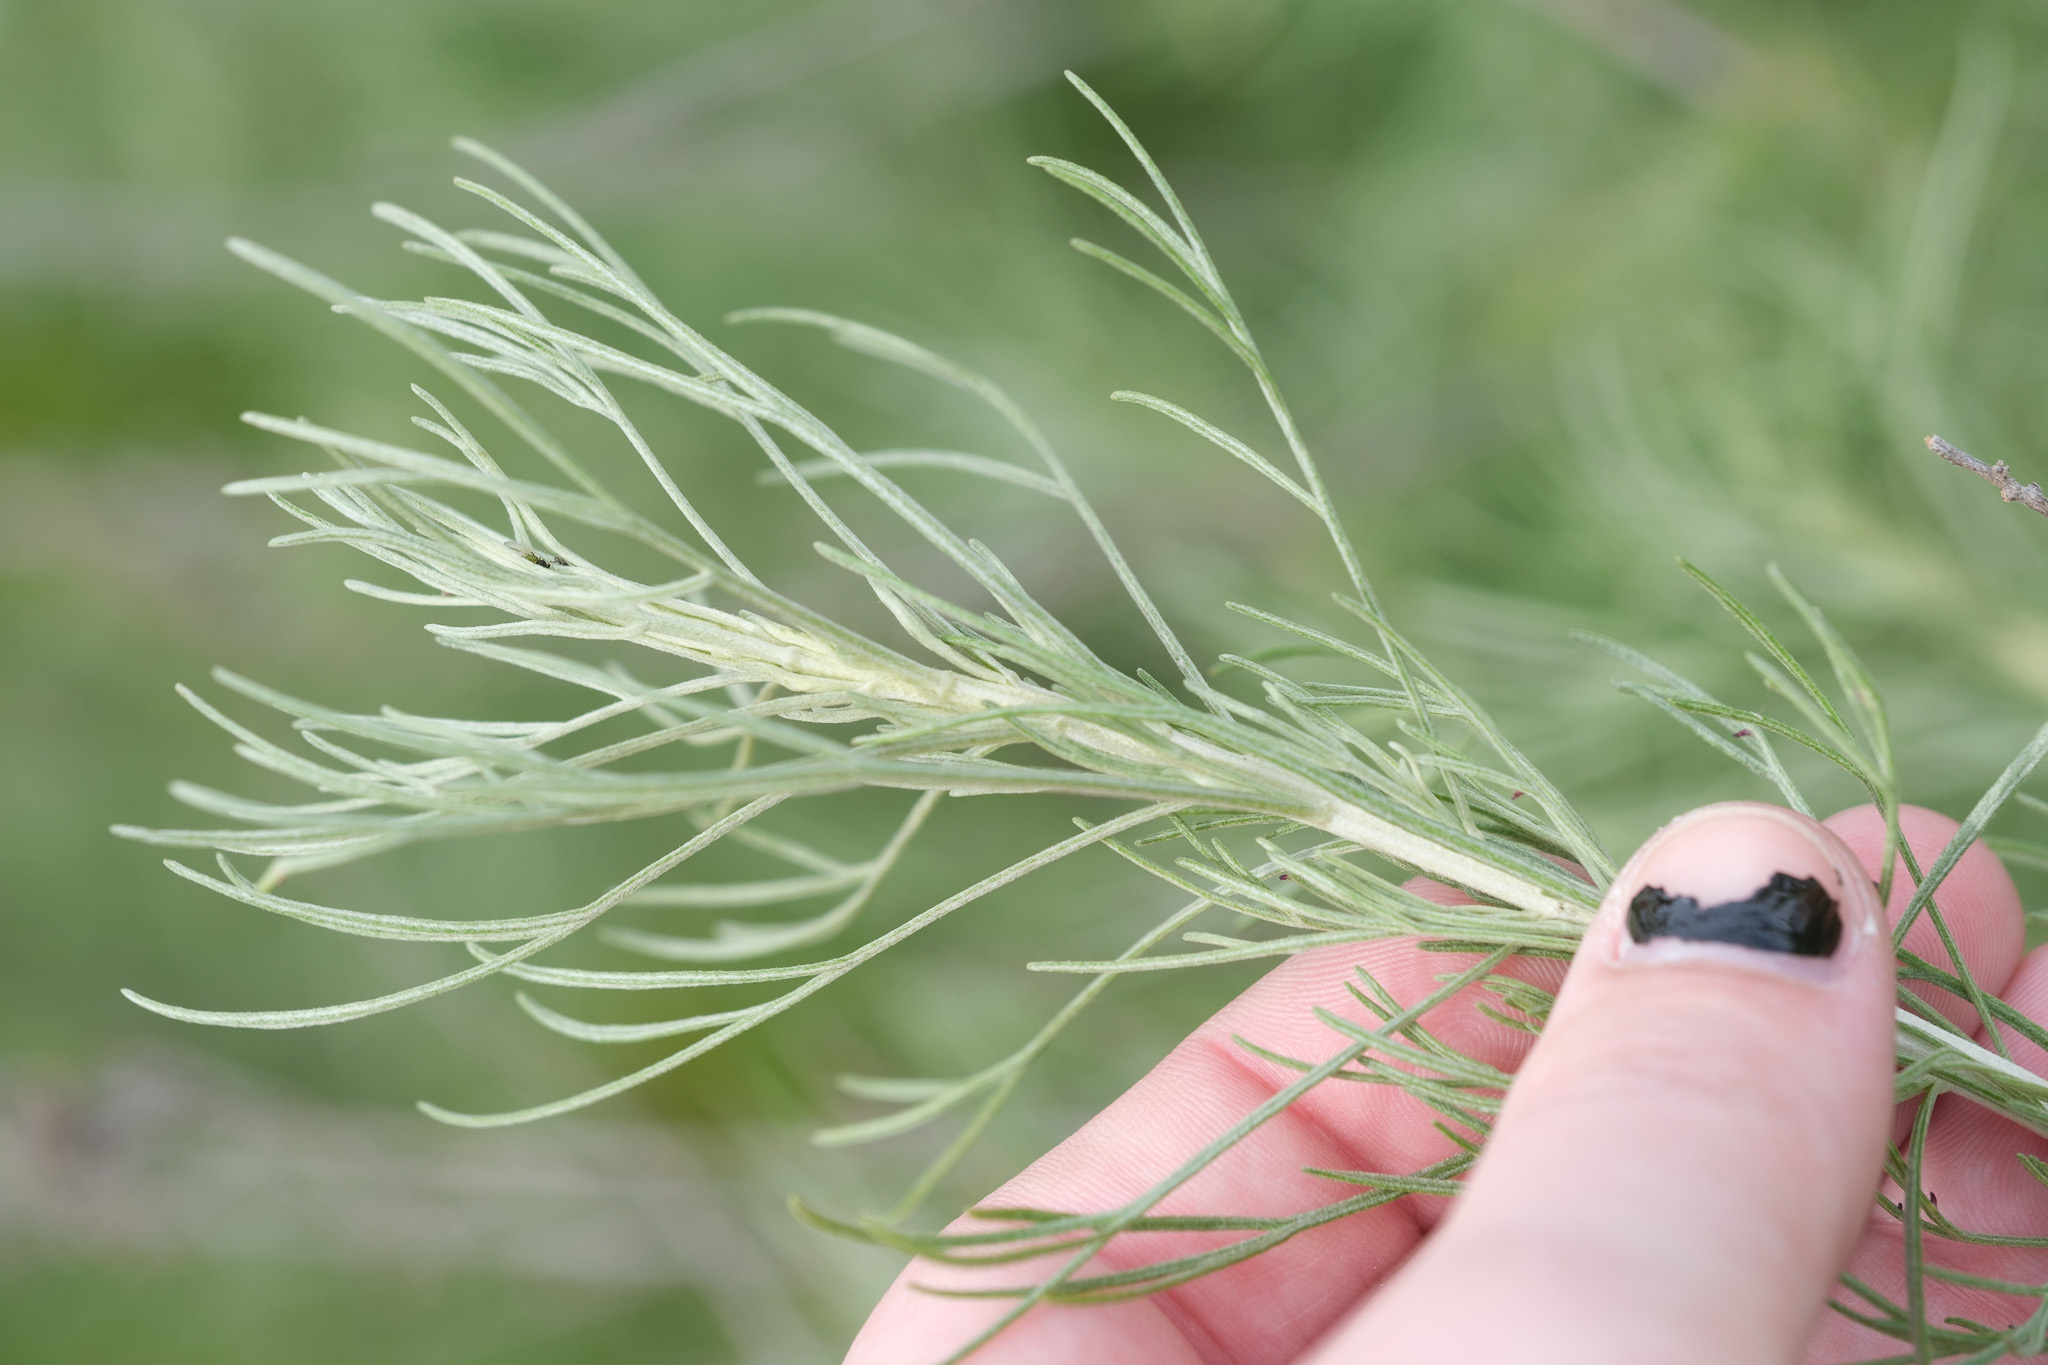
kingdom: Plantae
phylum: Tracheophyta
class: Magnoliopsida
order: Asterales
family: Asteraceae
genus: Artemisia
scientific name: Artemisia californica
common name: California sagebrush
